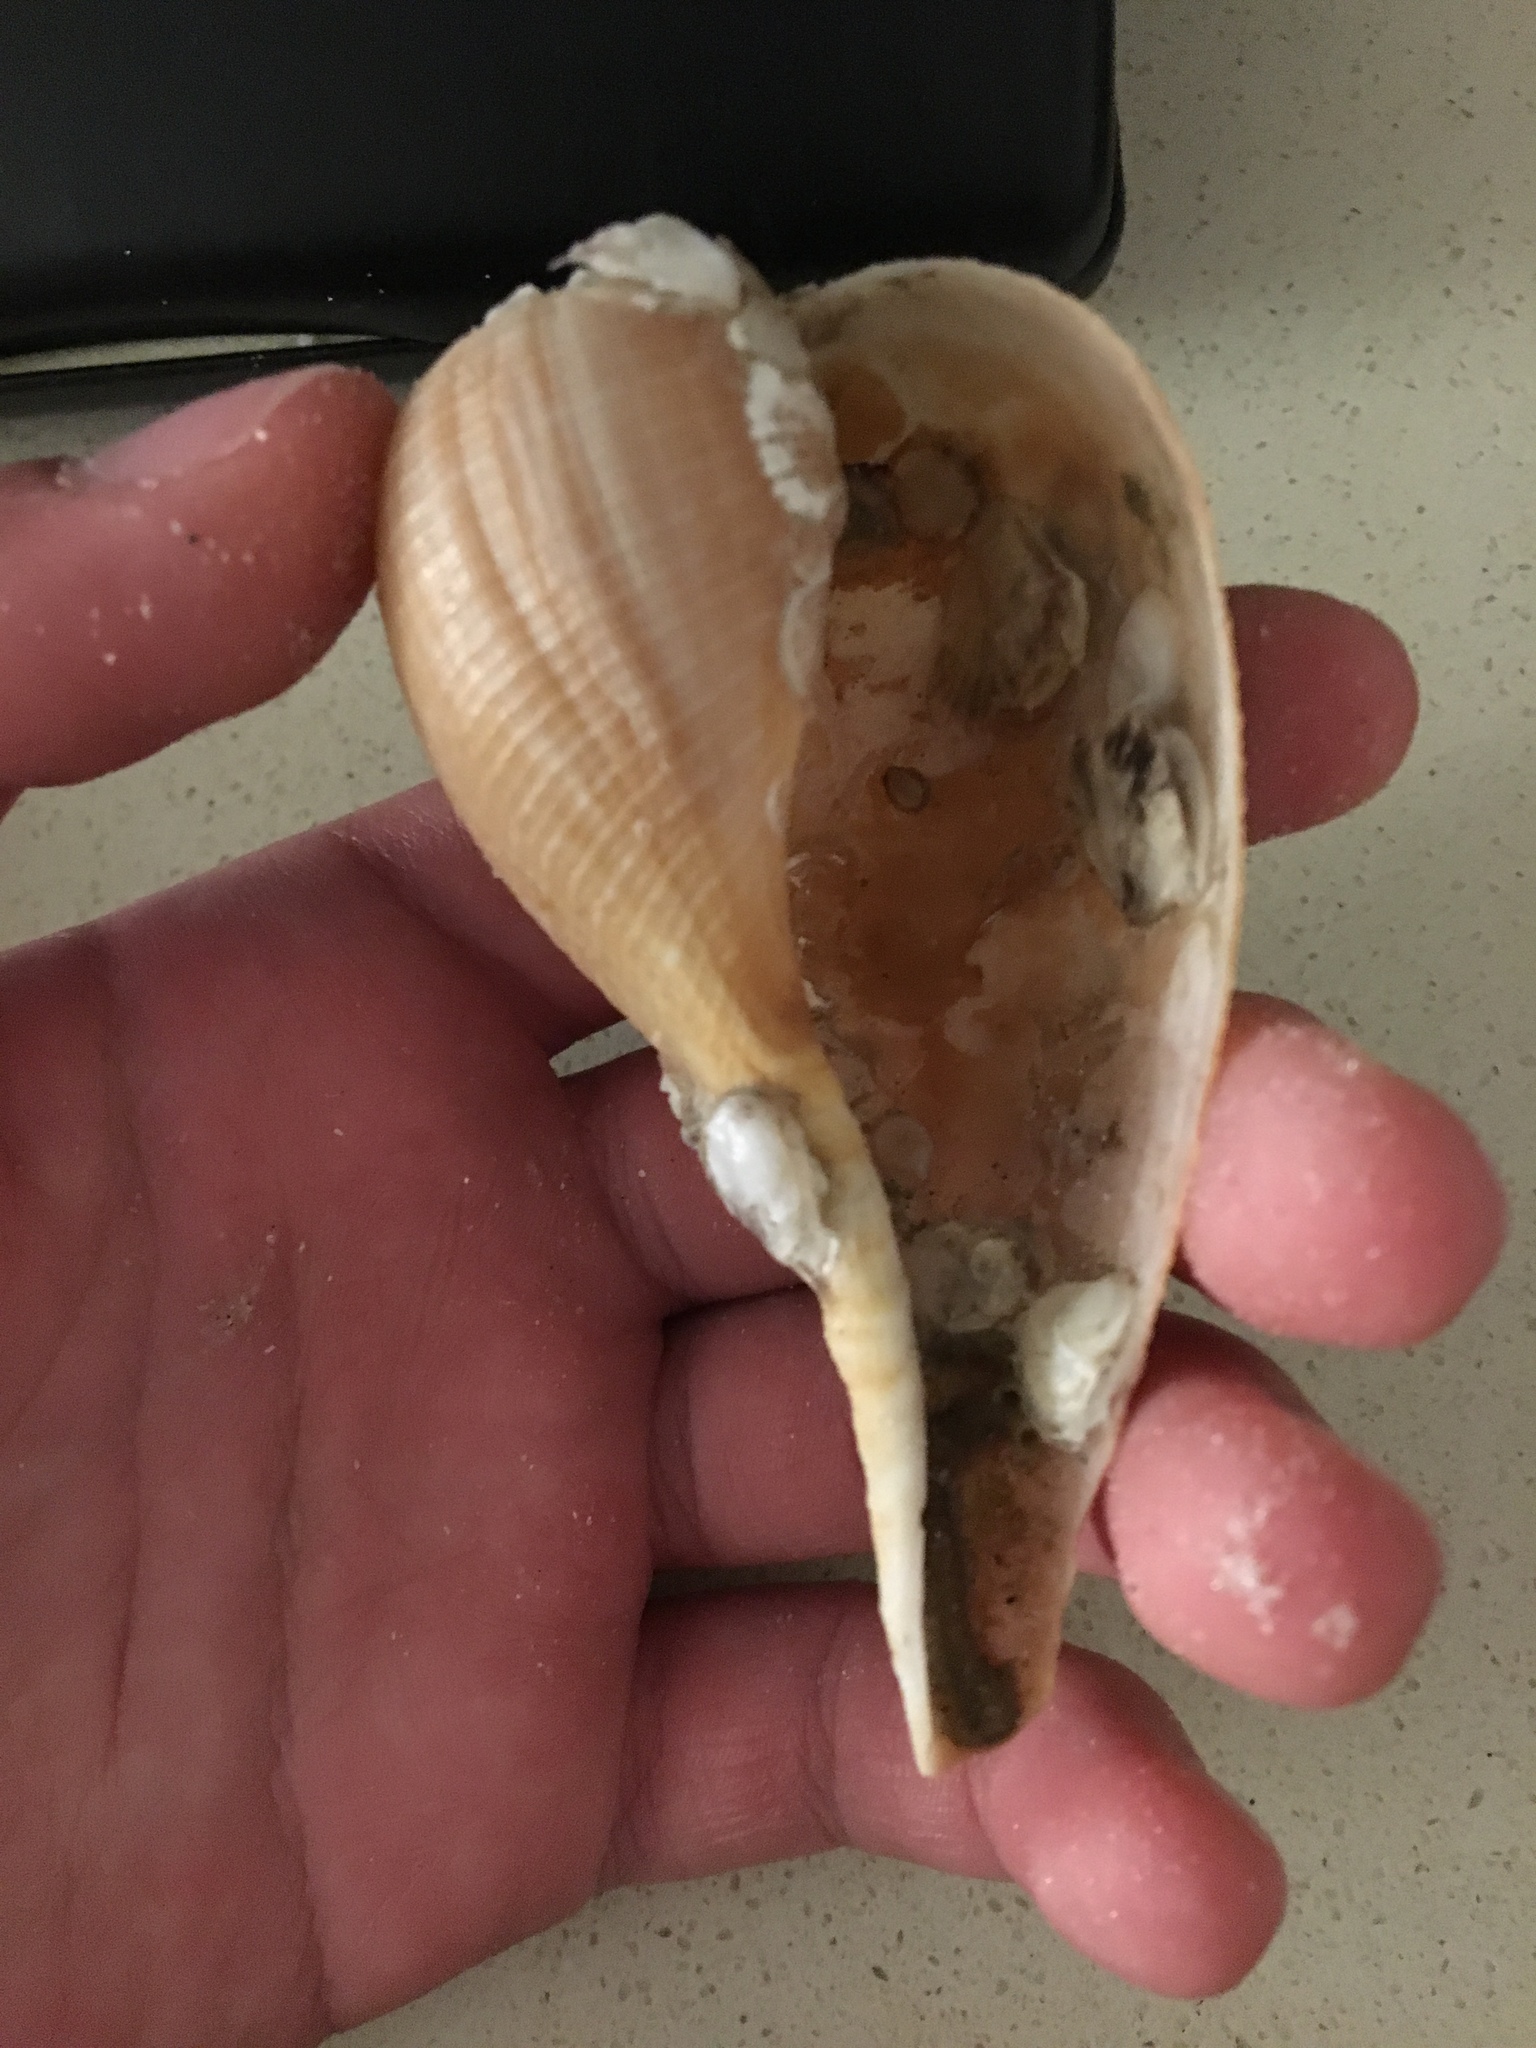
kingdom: Animalia
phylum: Mollusca
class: Gastropoda
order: Littorinimorpha
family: Ficidae
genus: Ficus
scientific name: Ficus papyratia
